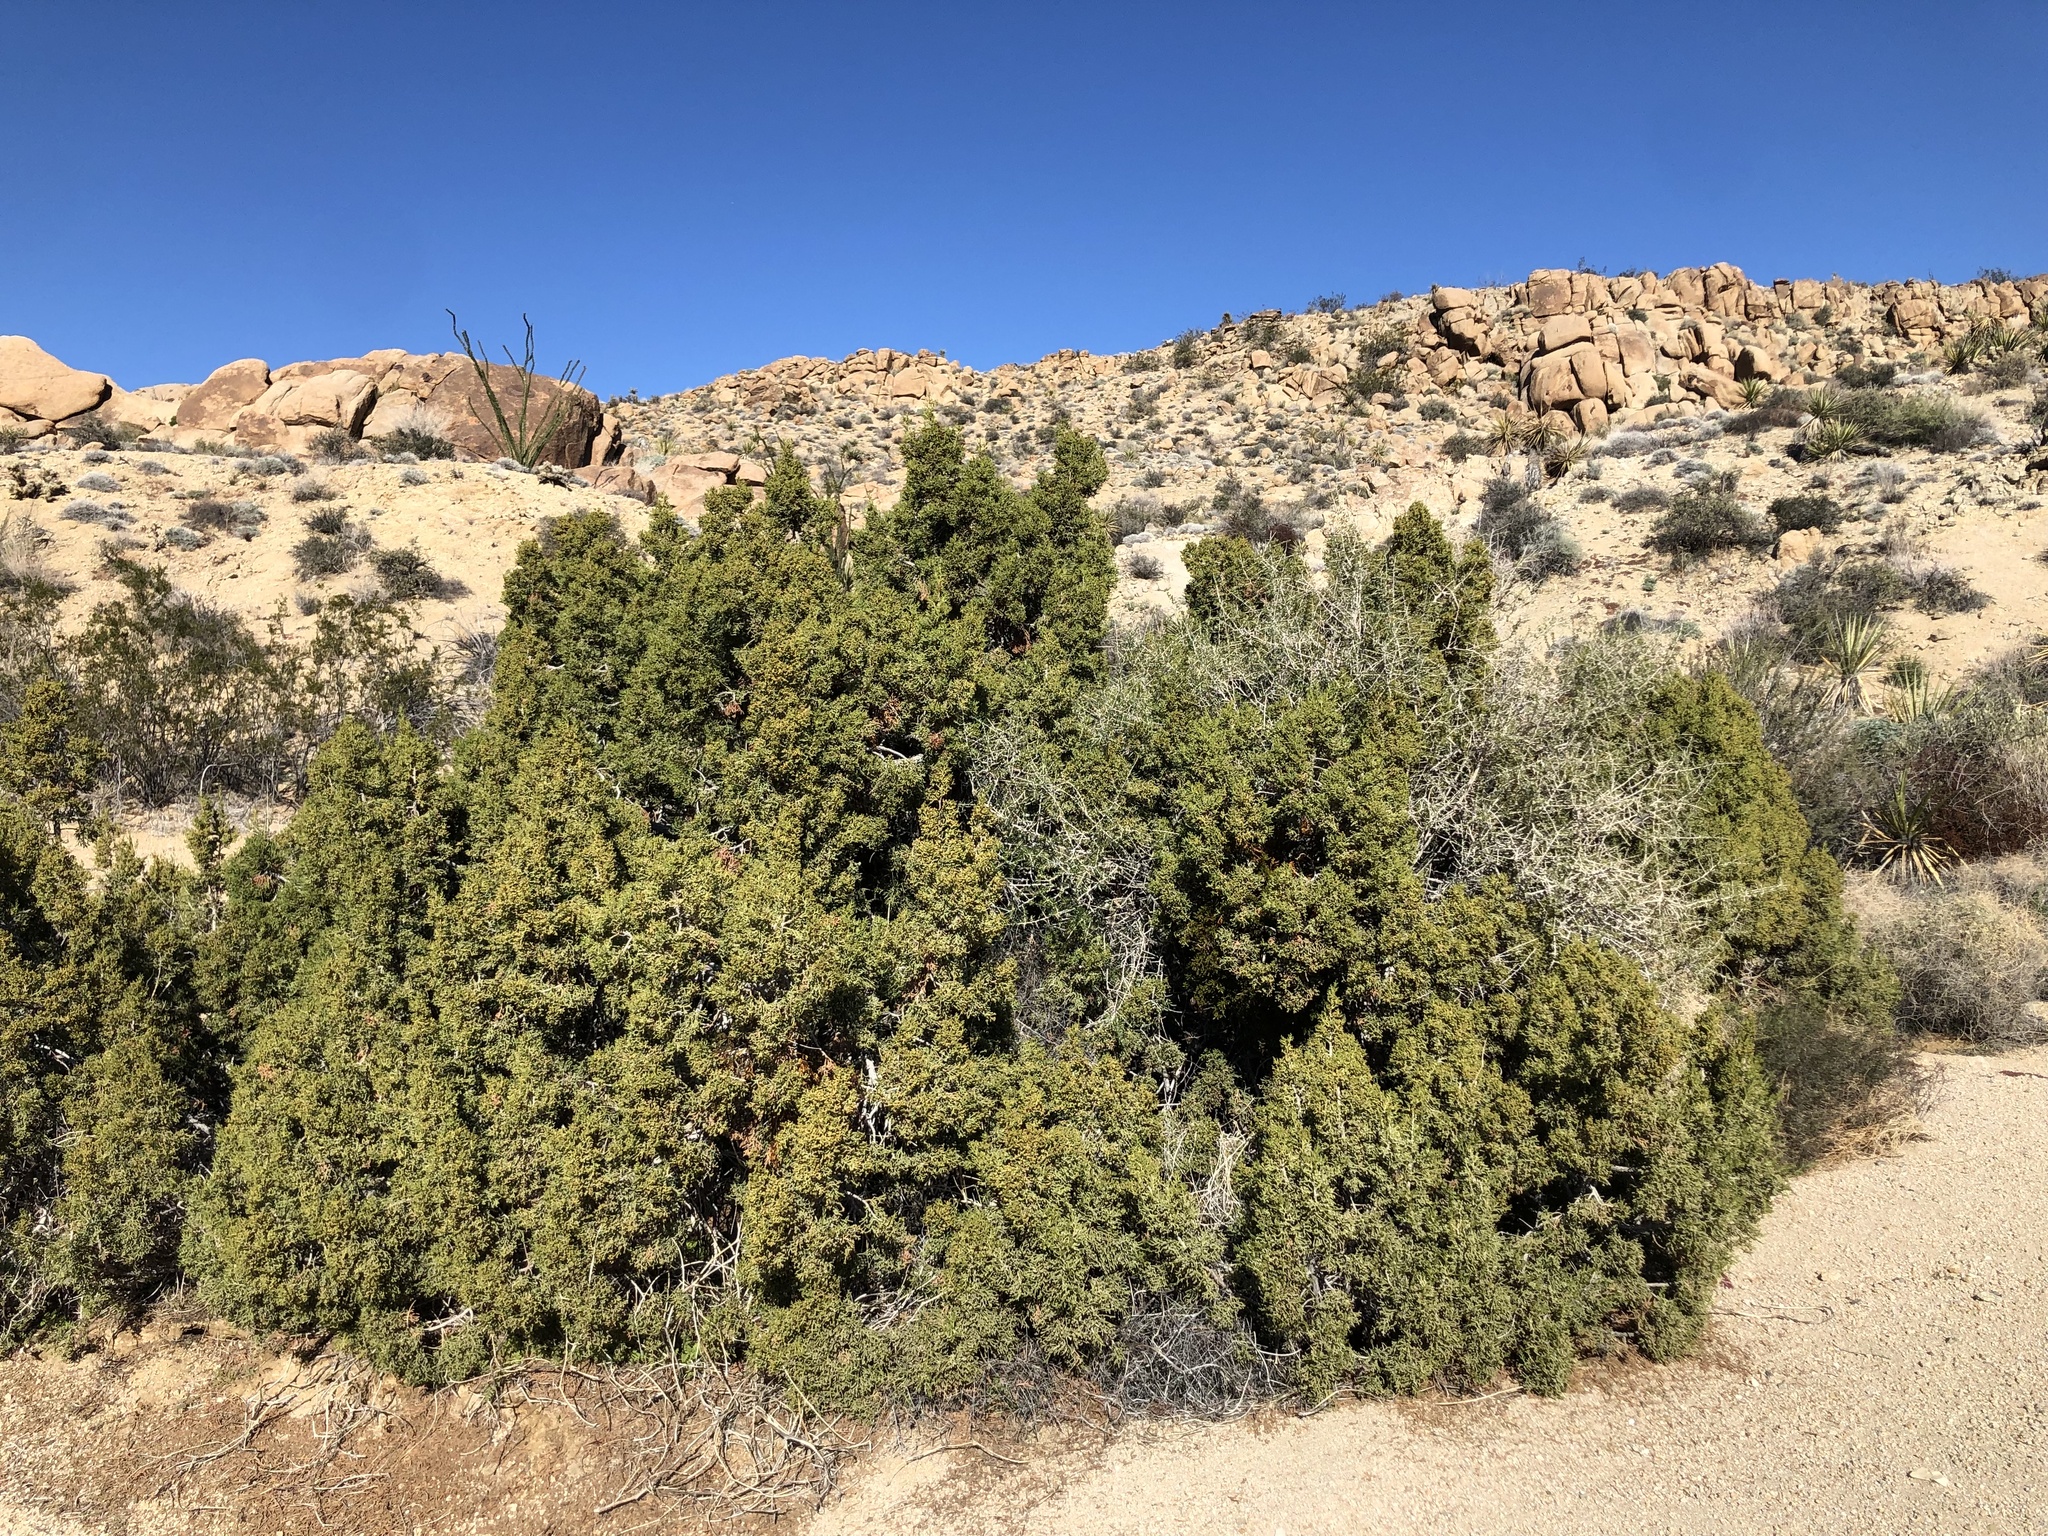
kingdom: Plantae
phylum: Tracheophyta
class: Pinopsida
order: Pinales
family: Cupressaceae
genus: Juniperus
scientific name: Juniperus californica
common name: California juniper
